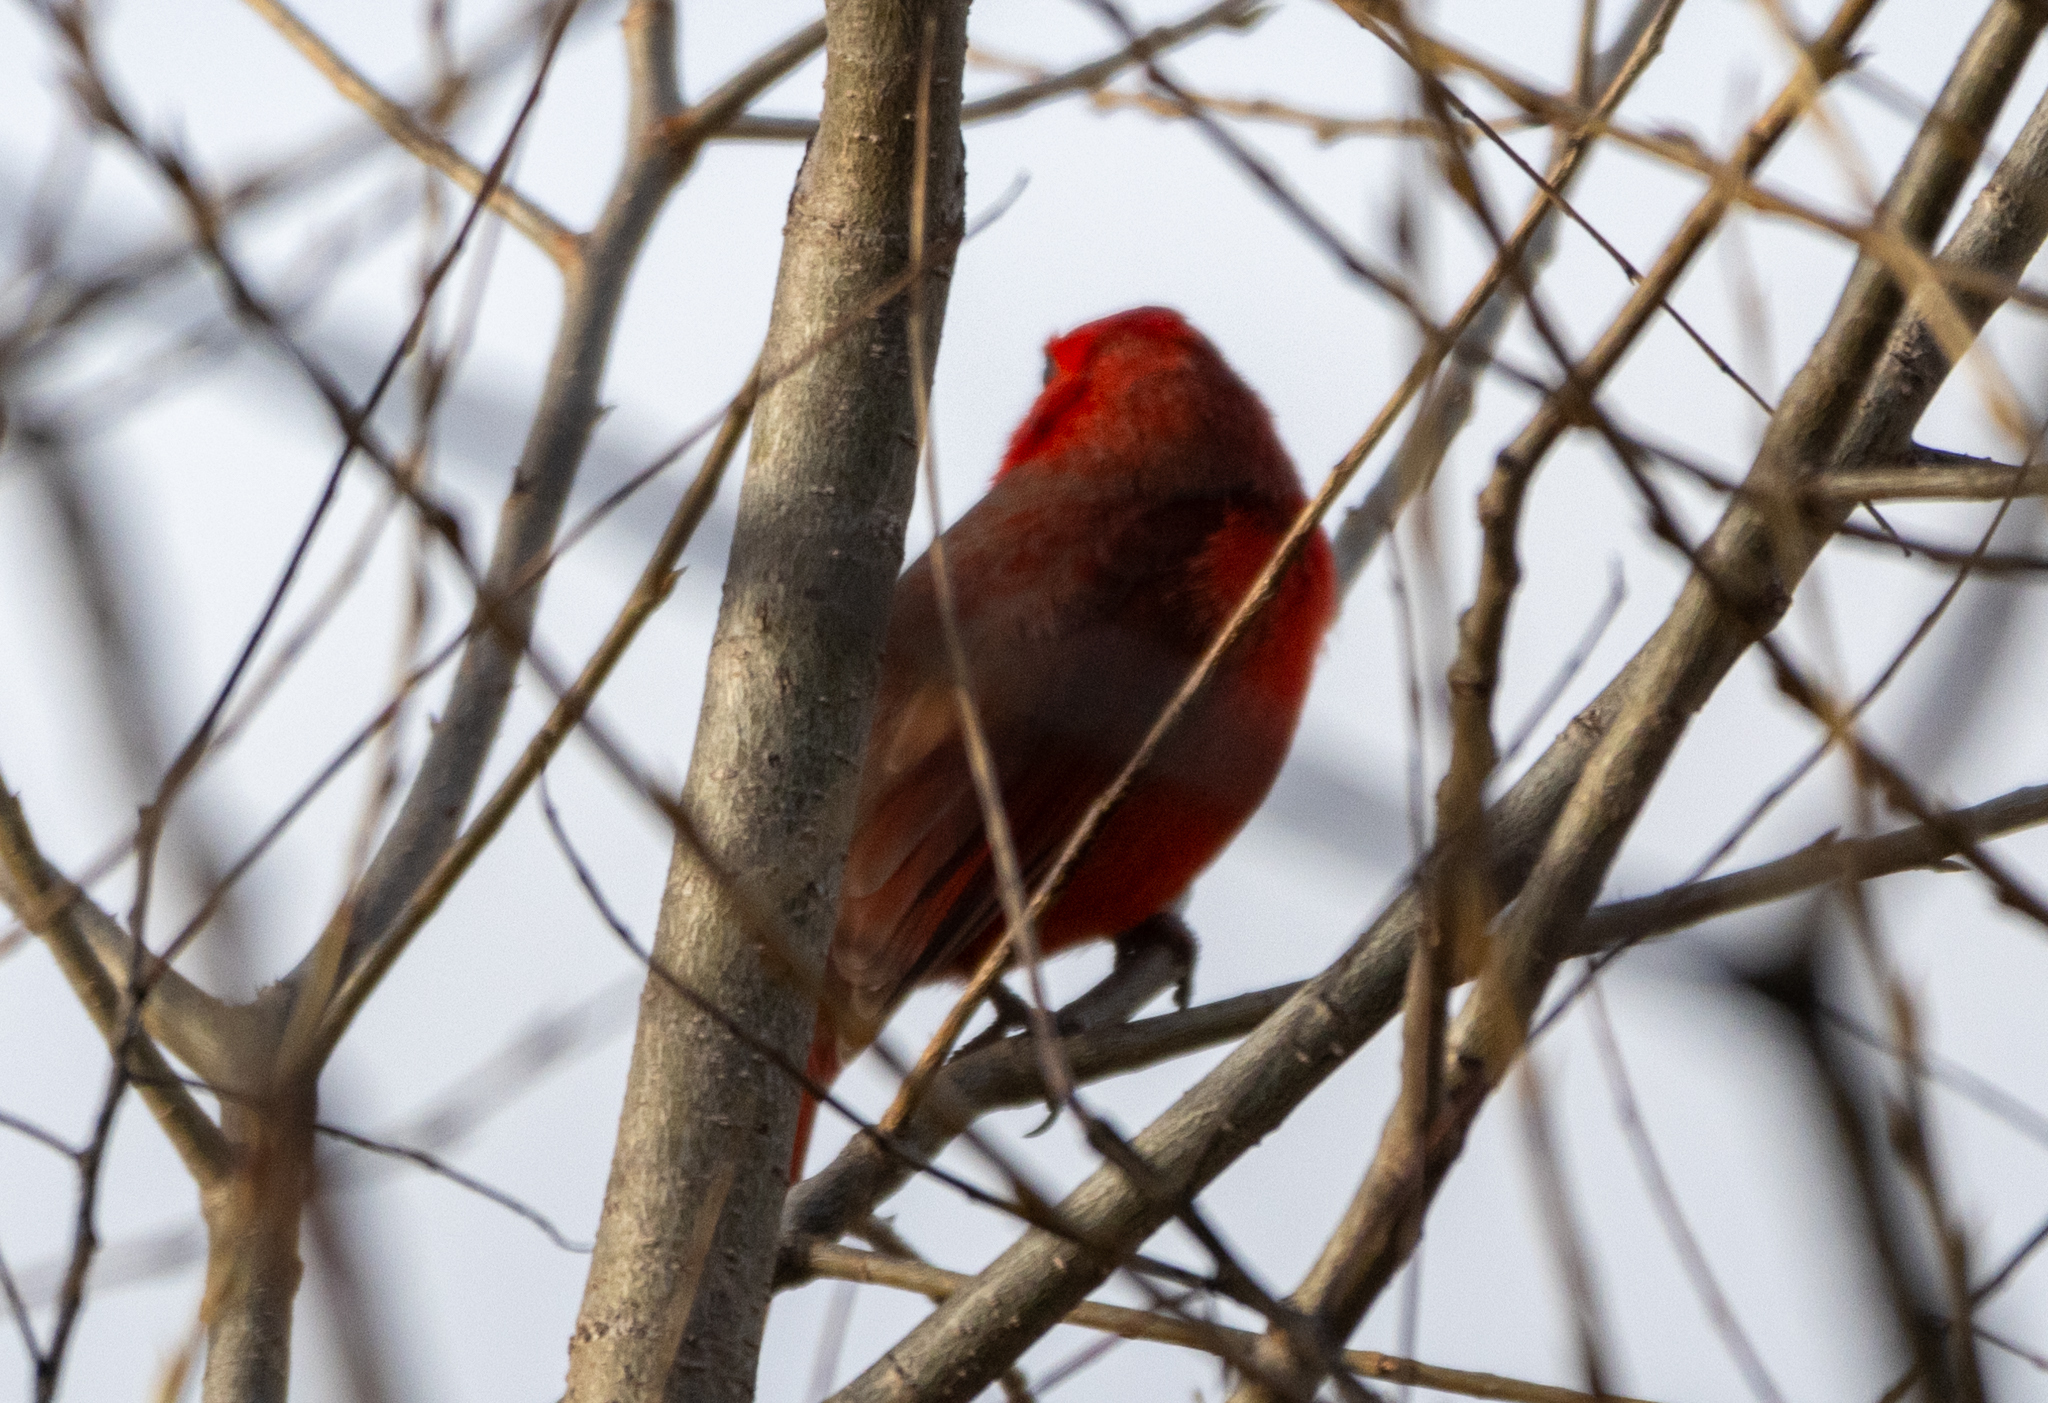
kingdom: Animalia
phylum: Chordata
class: Aves
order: Passeriformes
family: Cardinalidae
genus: Cardinalis
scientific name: Cardinalis cardinalis
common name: Northern cardinal
